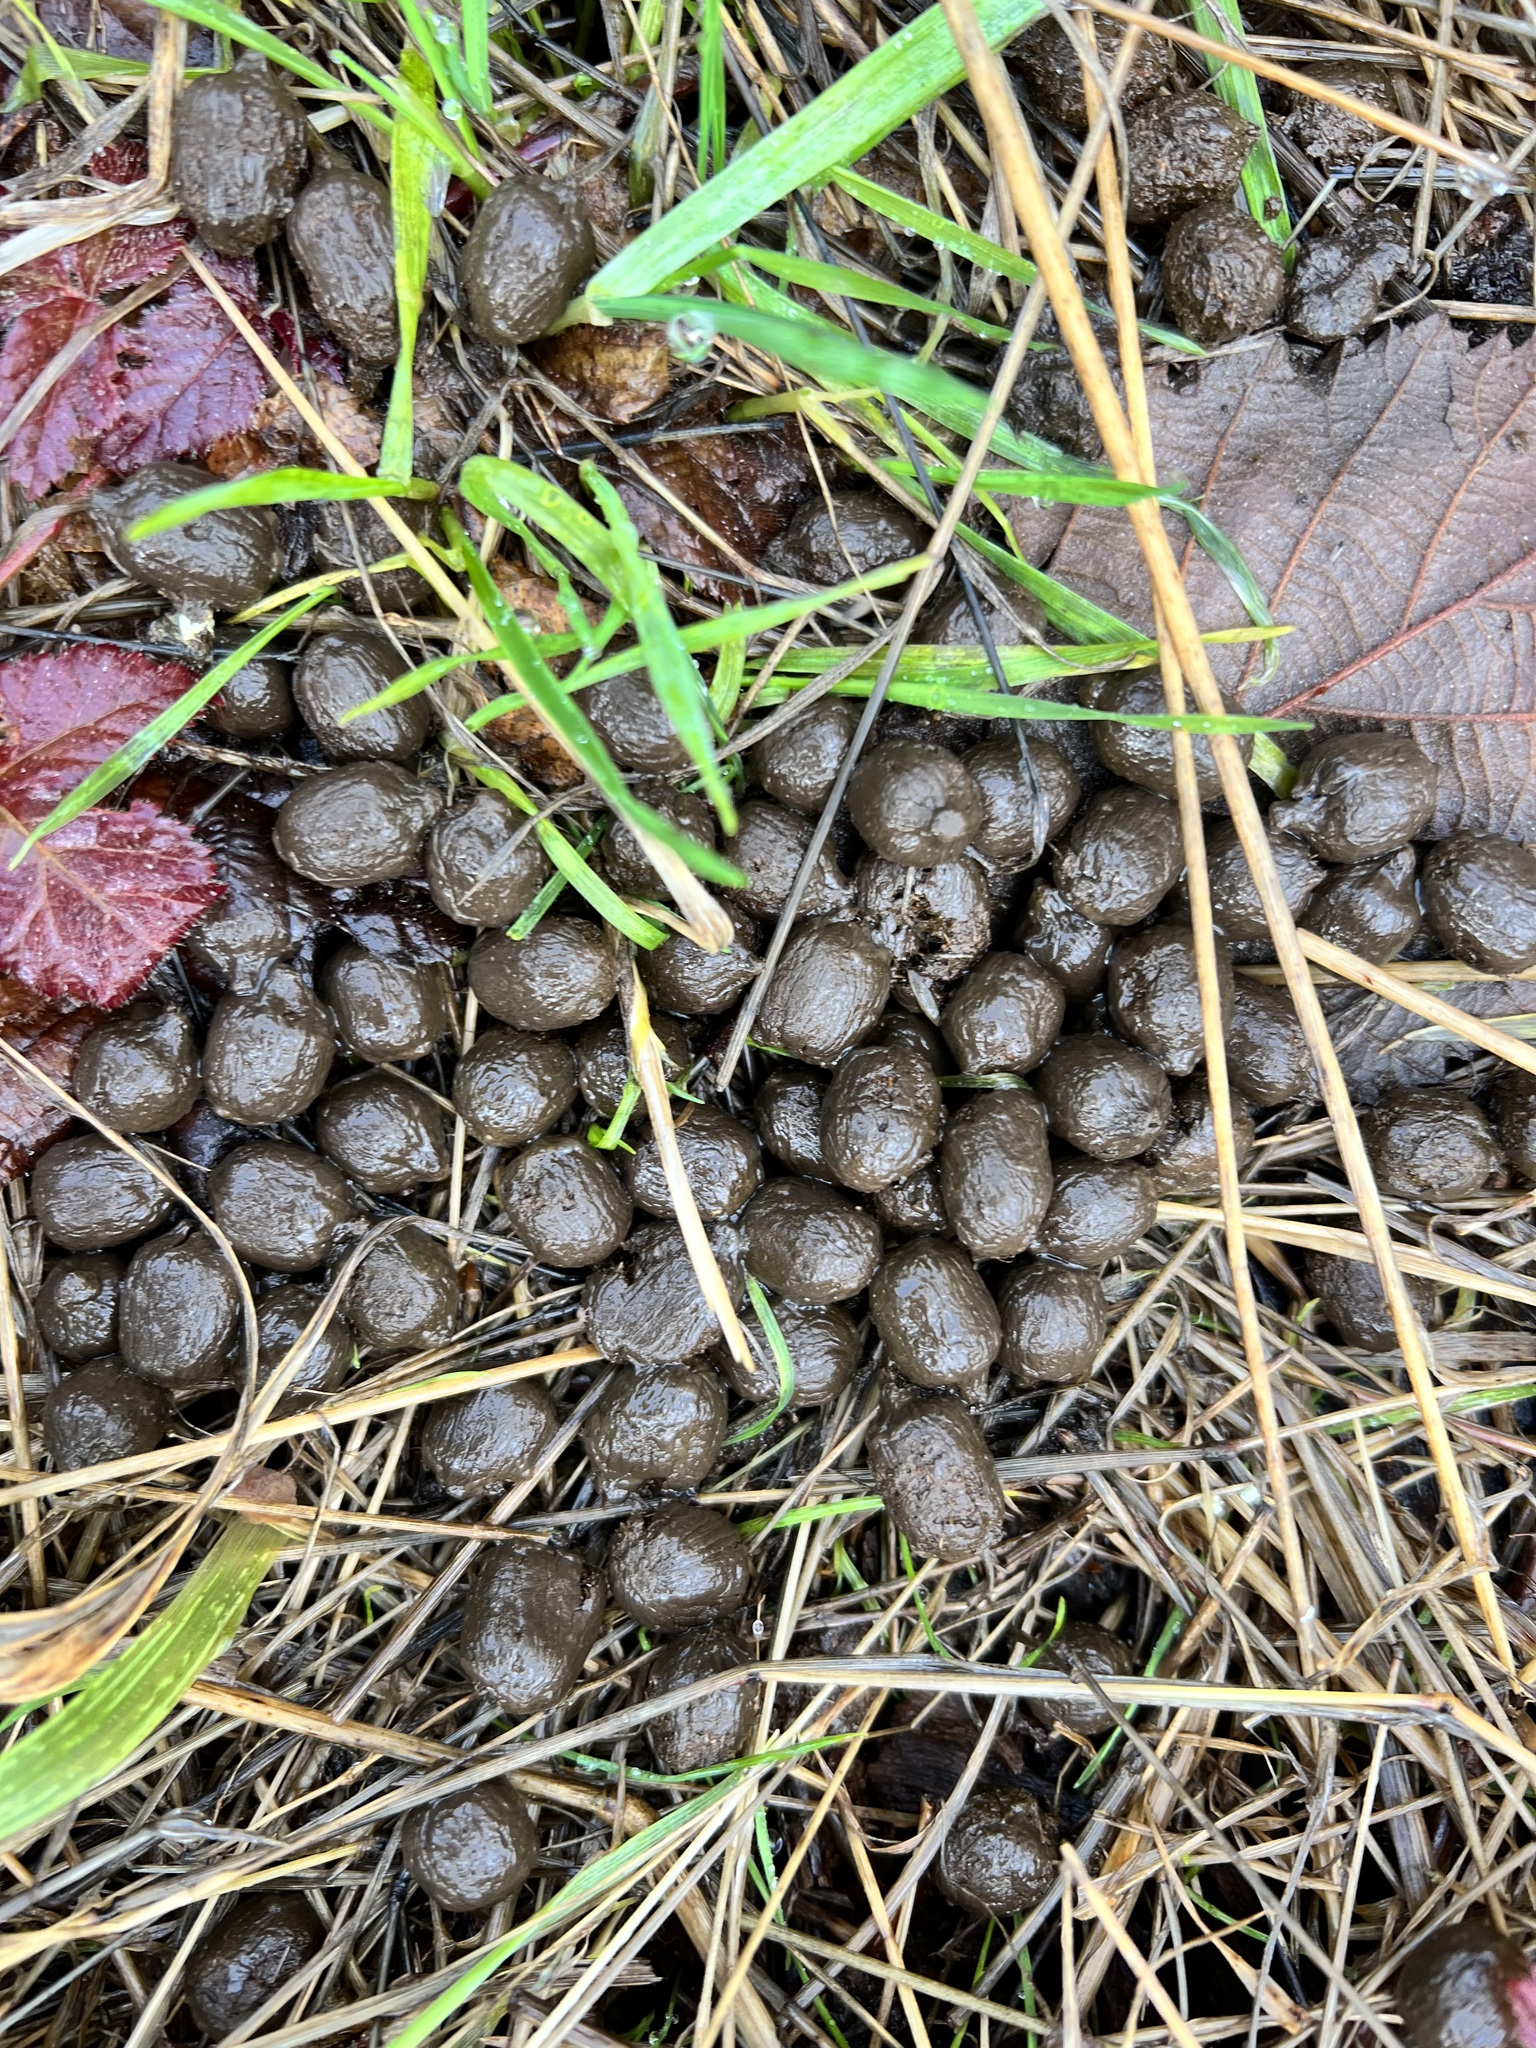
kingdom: Animalia
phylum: Chordata
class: Mammalia
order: Artiodactyla
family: Cervidae
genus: Odocoileus
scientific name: Odocoileus hemionus
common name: Mule deer
